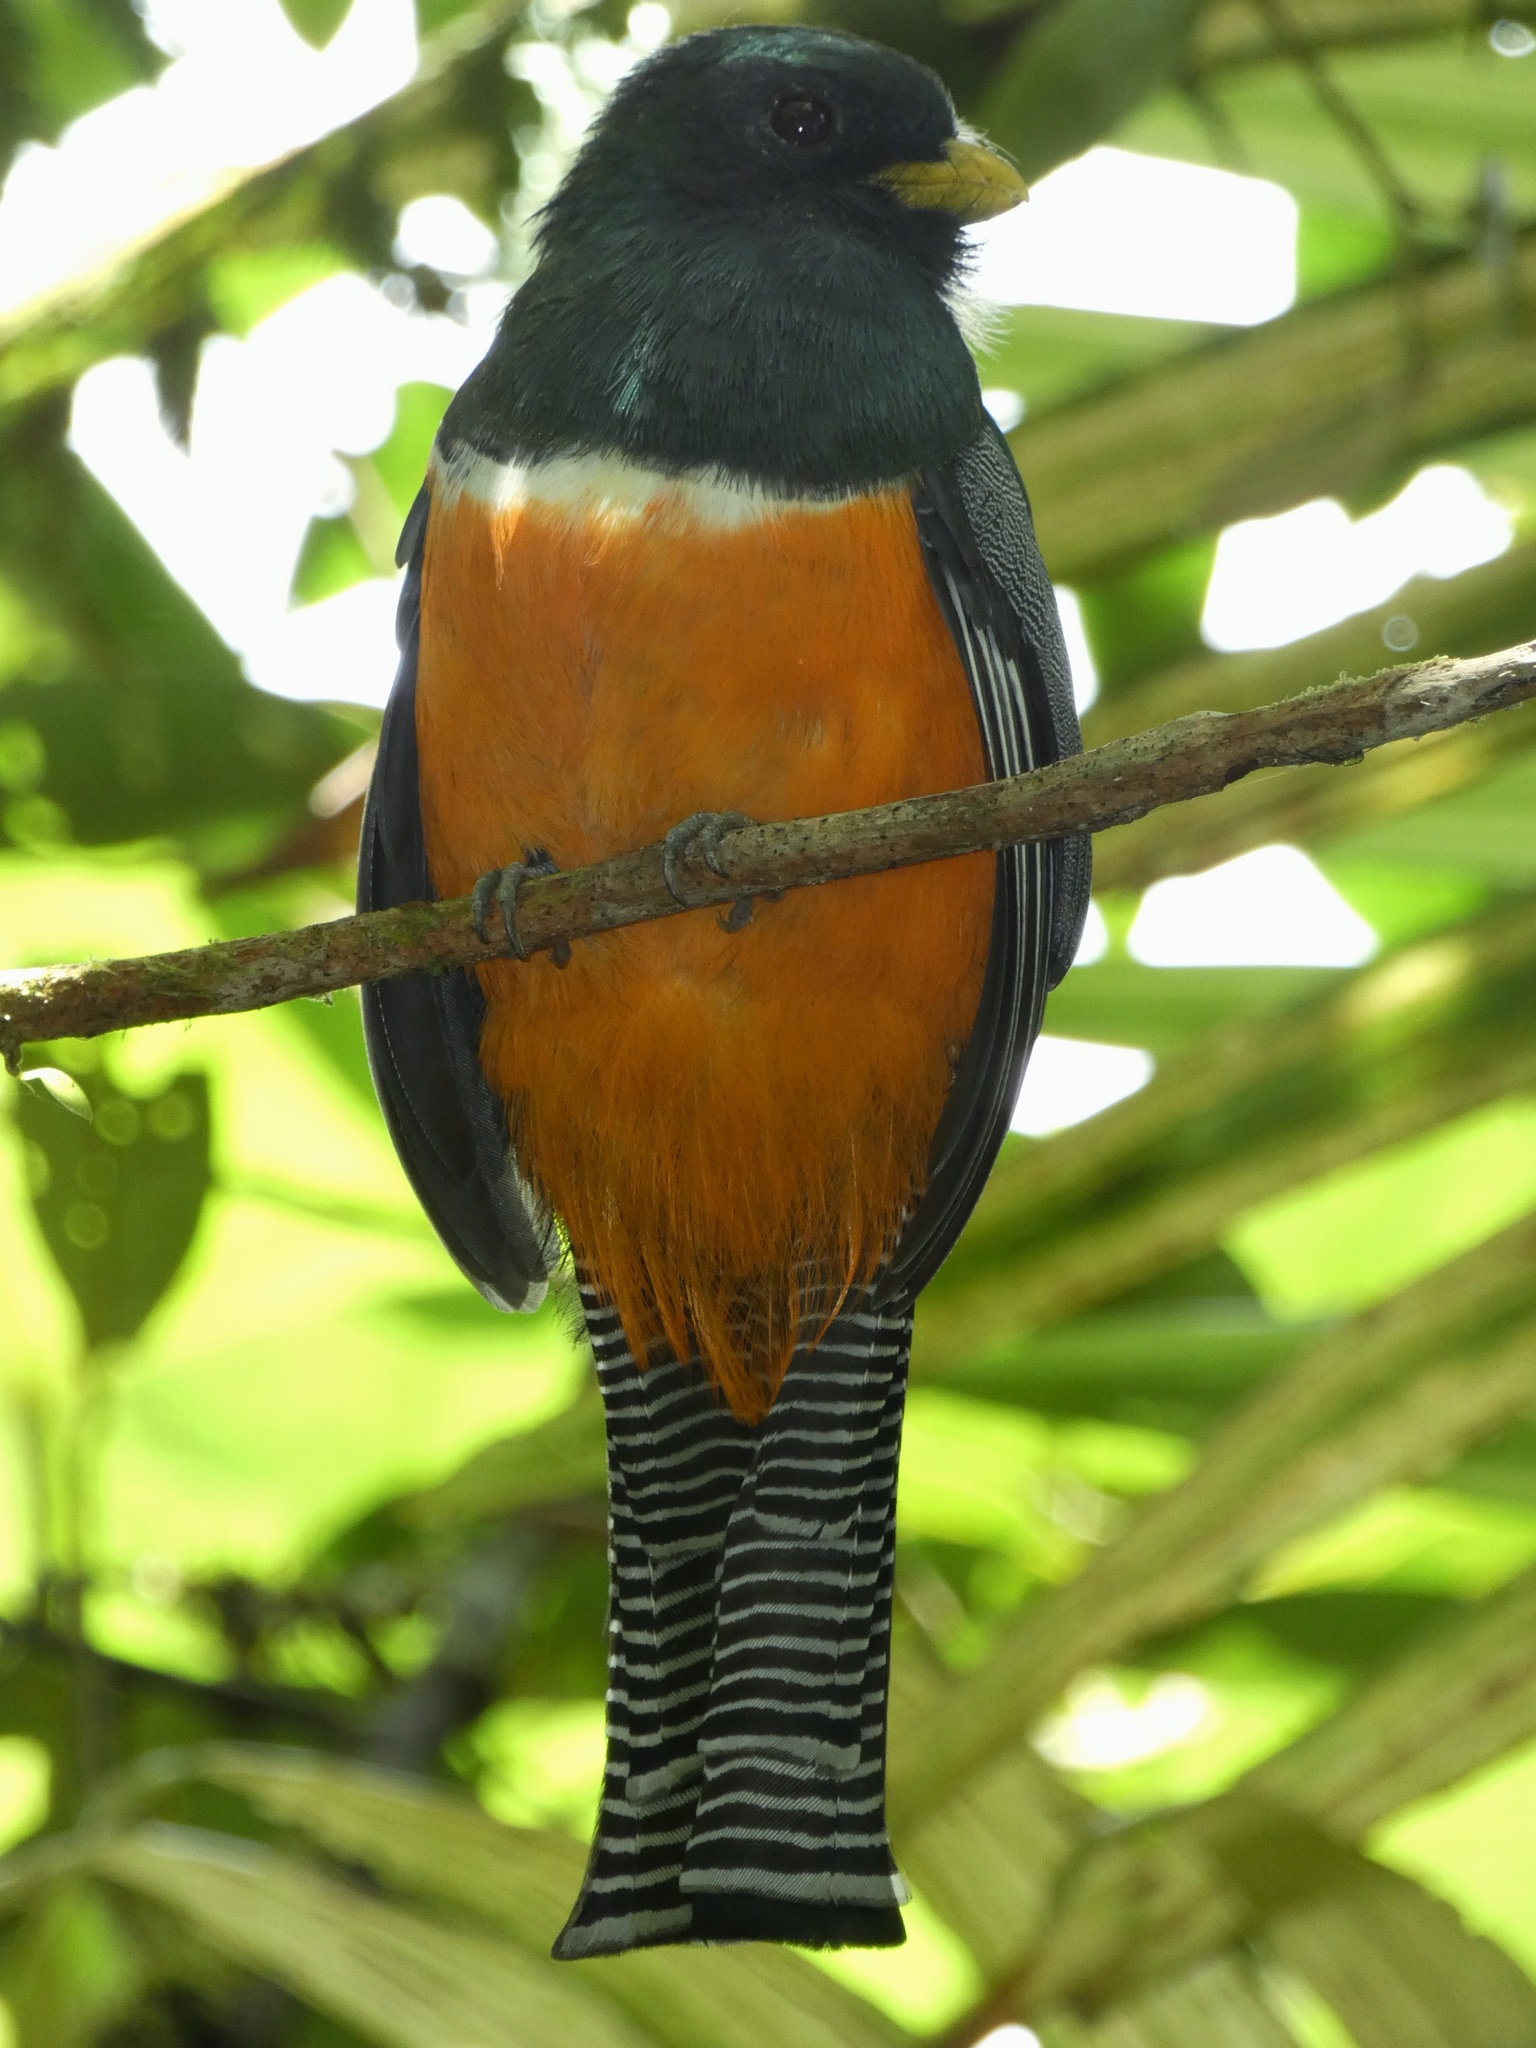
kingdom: Animalia
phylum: Chordata
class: Aves
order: Trogoniformes
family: Trogonidae
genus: Trogon
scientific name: Trogon rufus
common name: Black-throated trogon
